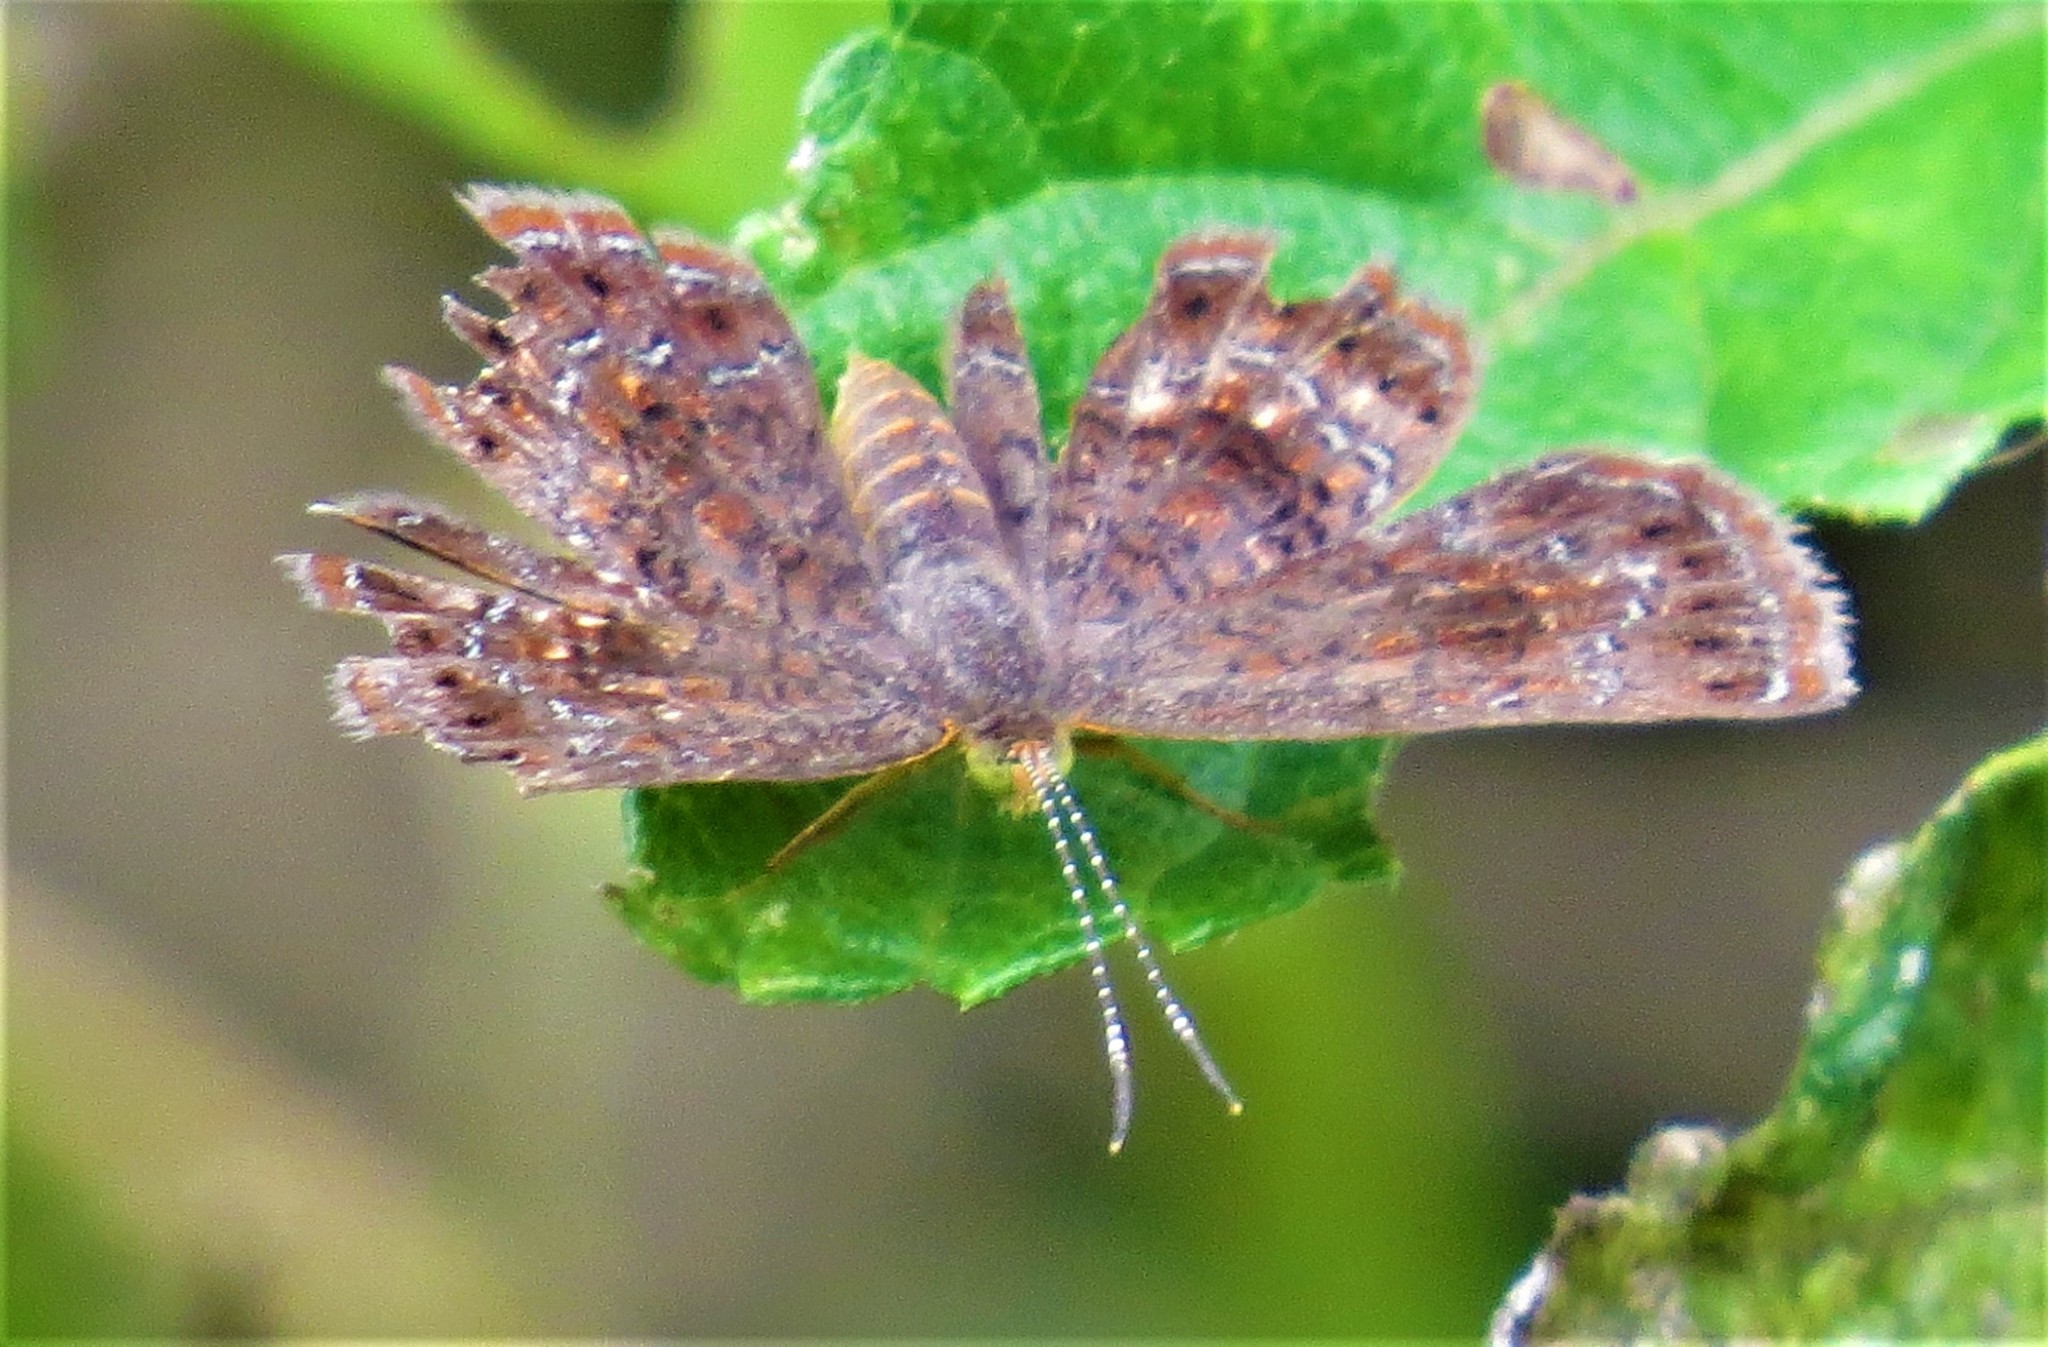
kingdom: Animalia
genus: Calephelis
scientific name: Calephelis perditalis
